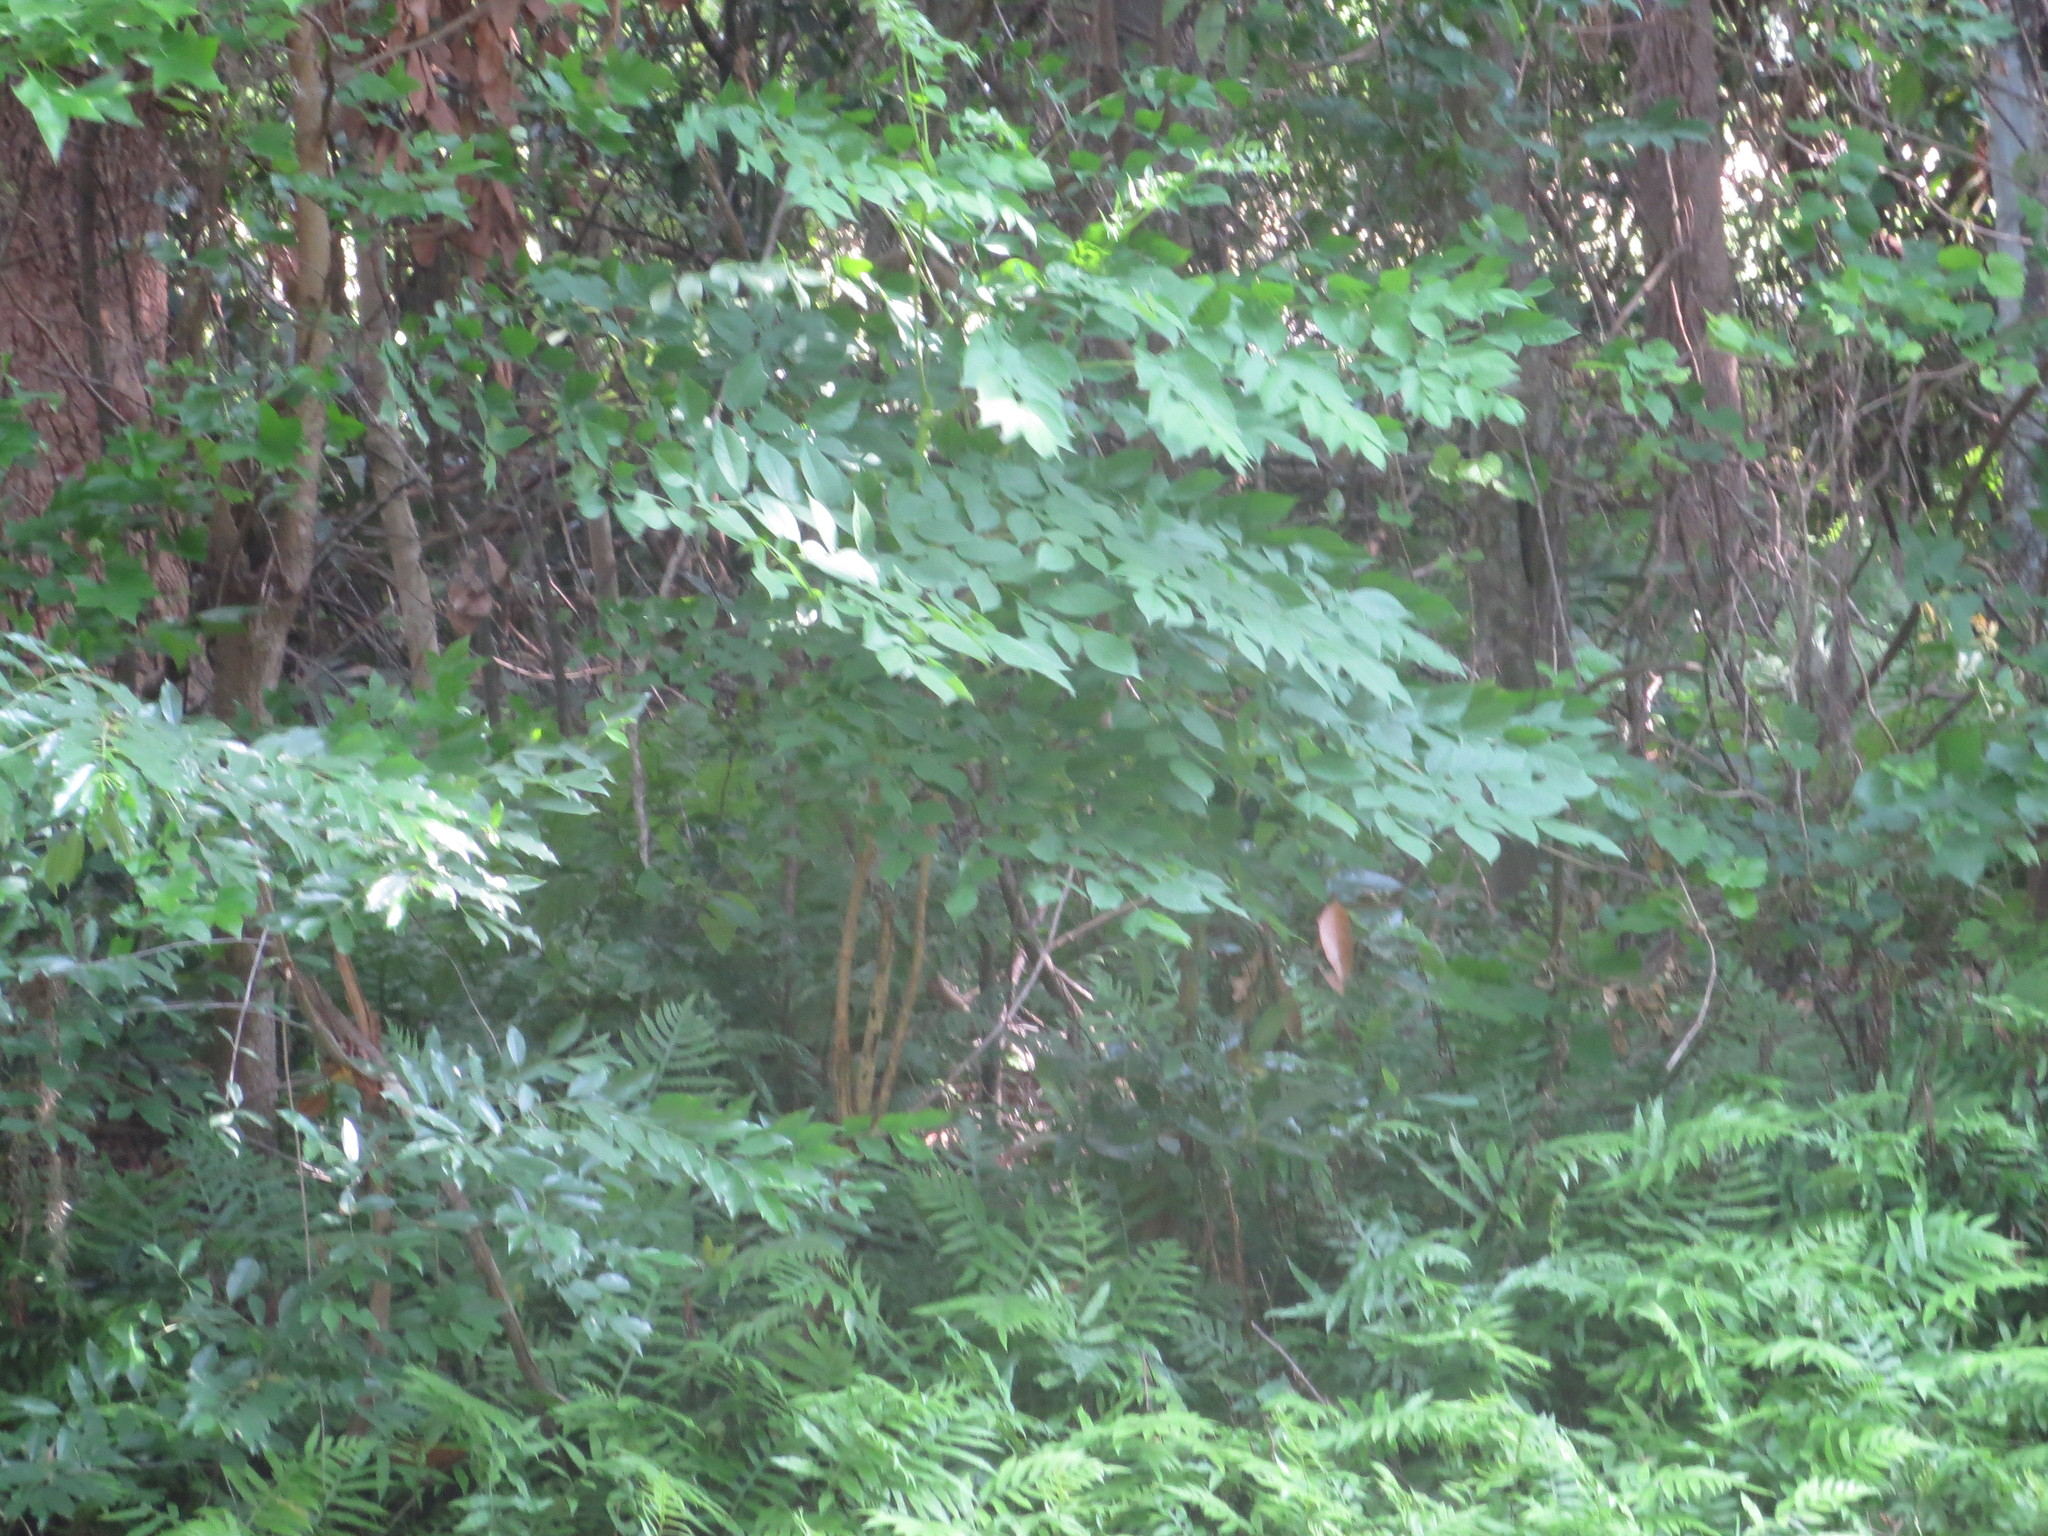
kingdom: Plantae
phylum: Tracheophyta
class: Magnoliopsida
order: Apiales
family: Araliaceae
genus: Aralia
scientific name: Aralia spinosa
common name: Hercules'-club
